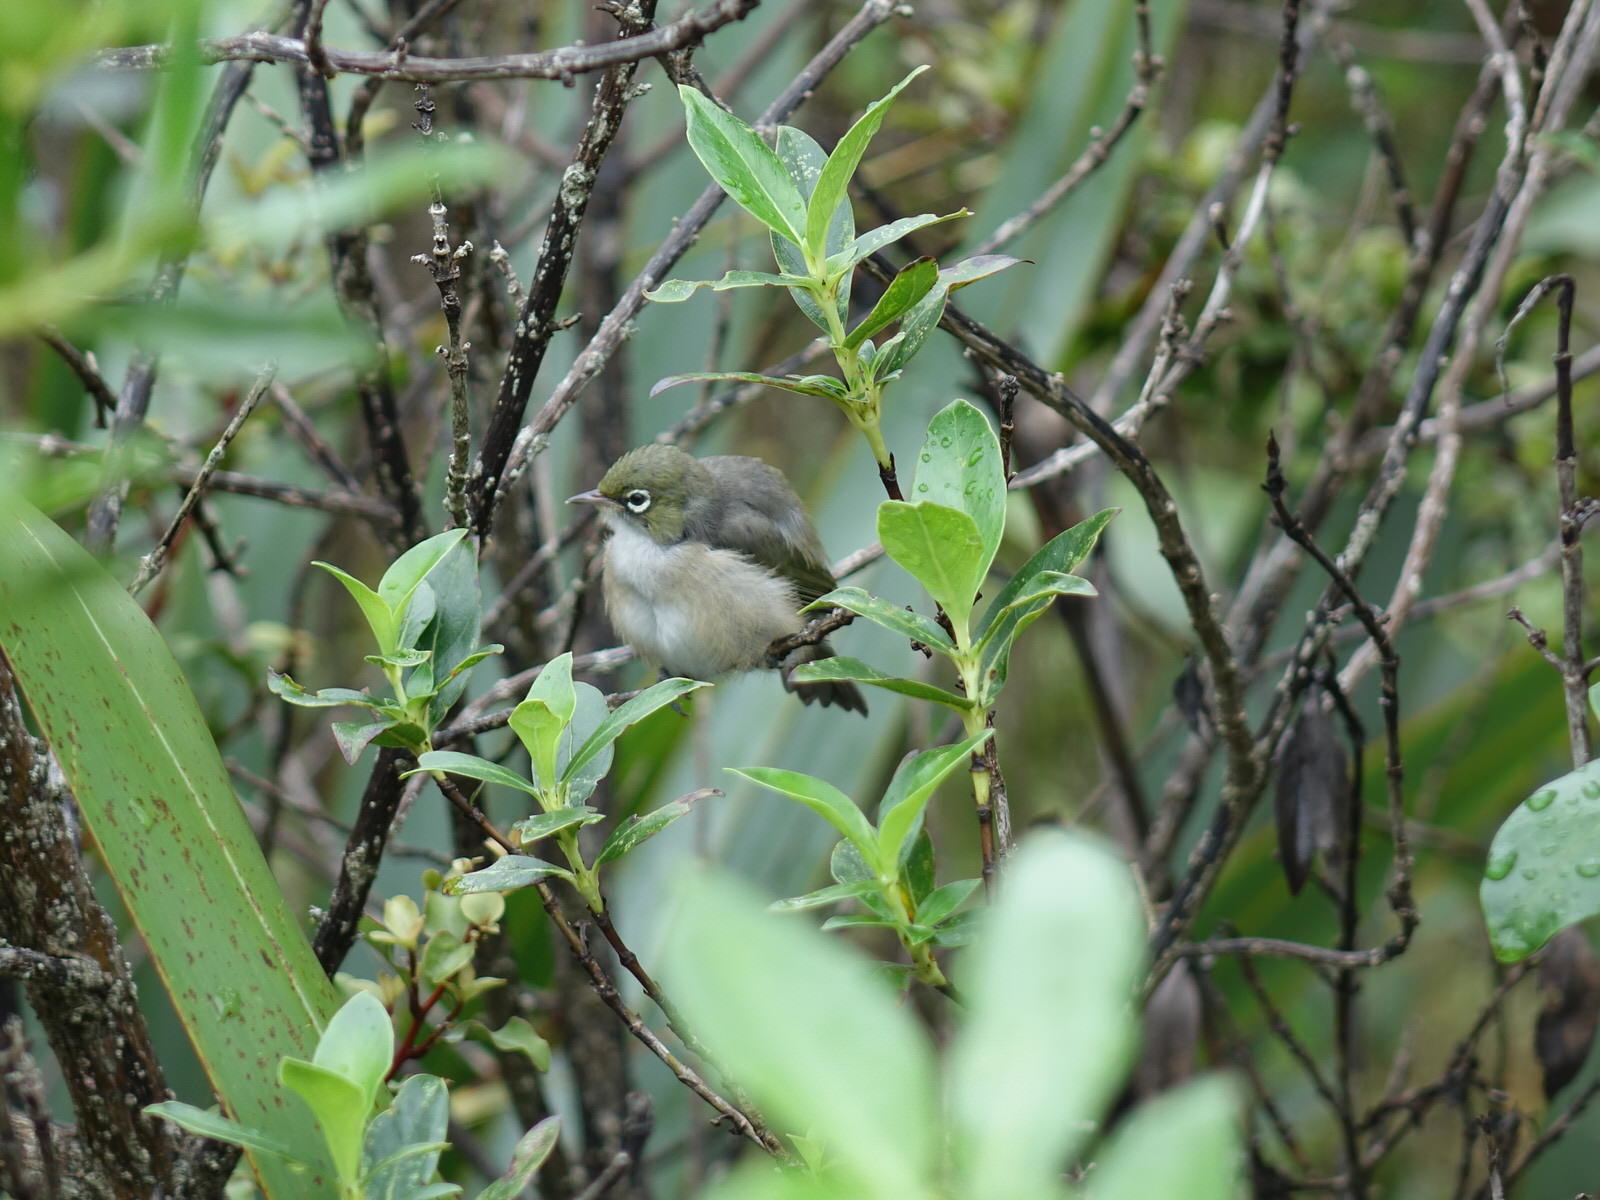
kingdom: Animalia
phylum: Chordata
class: Aves
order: Passeriformes
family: Zosteropidae
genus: Zosterops
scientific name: Zosterops lateralis
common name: Silvereye
